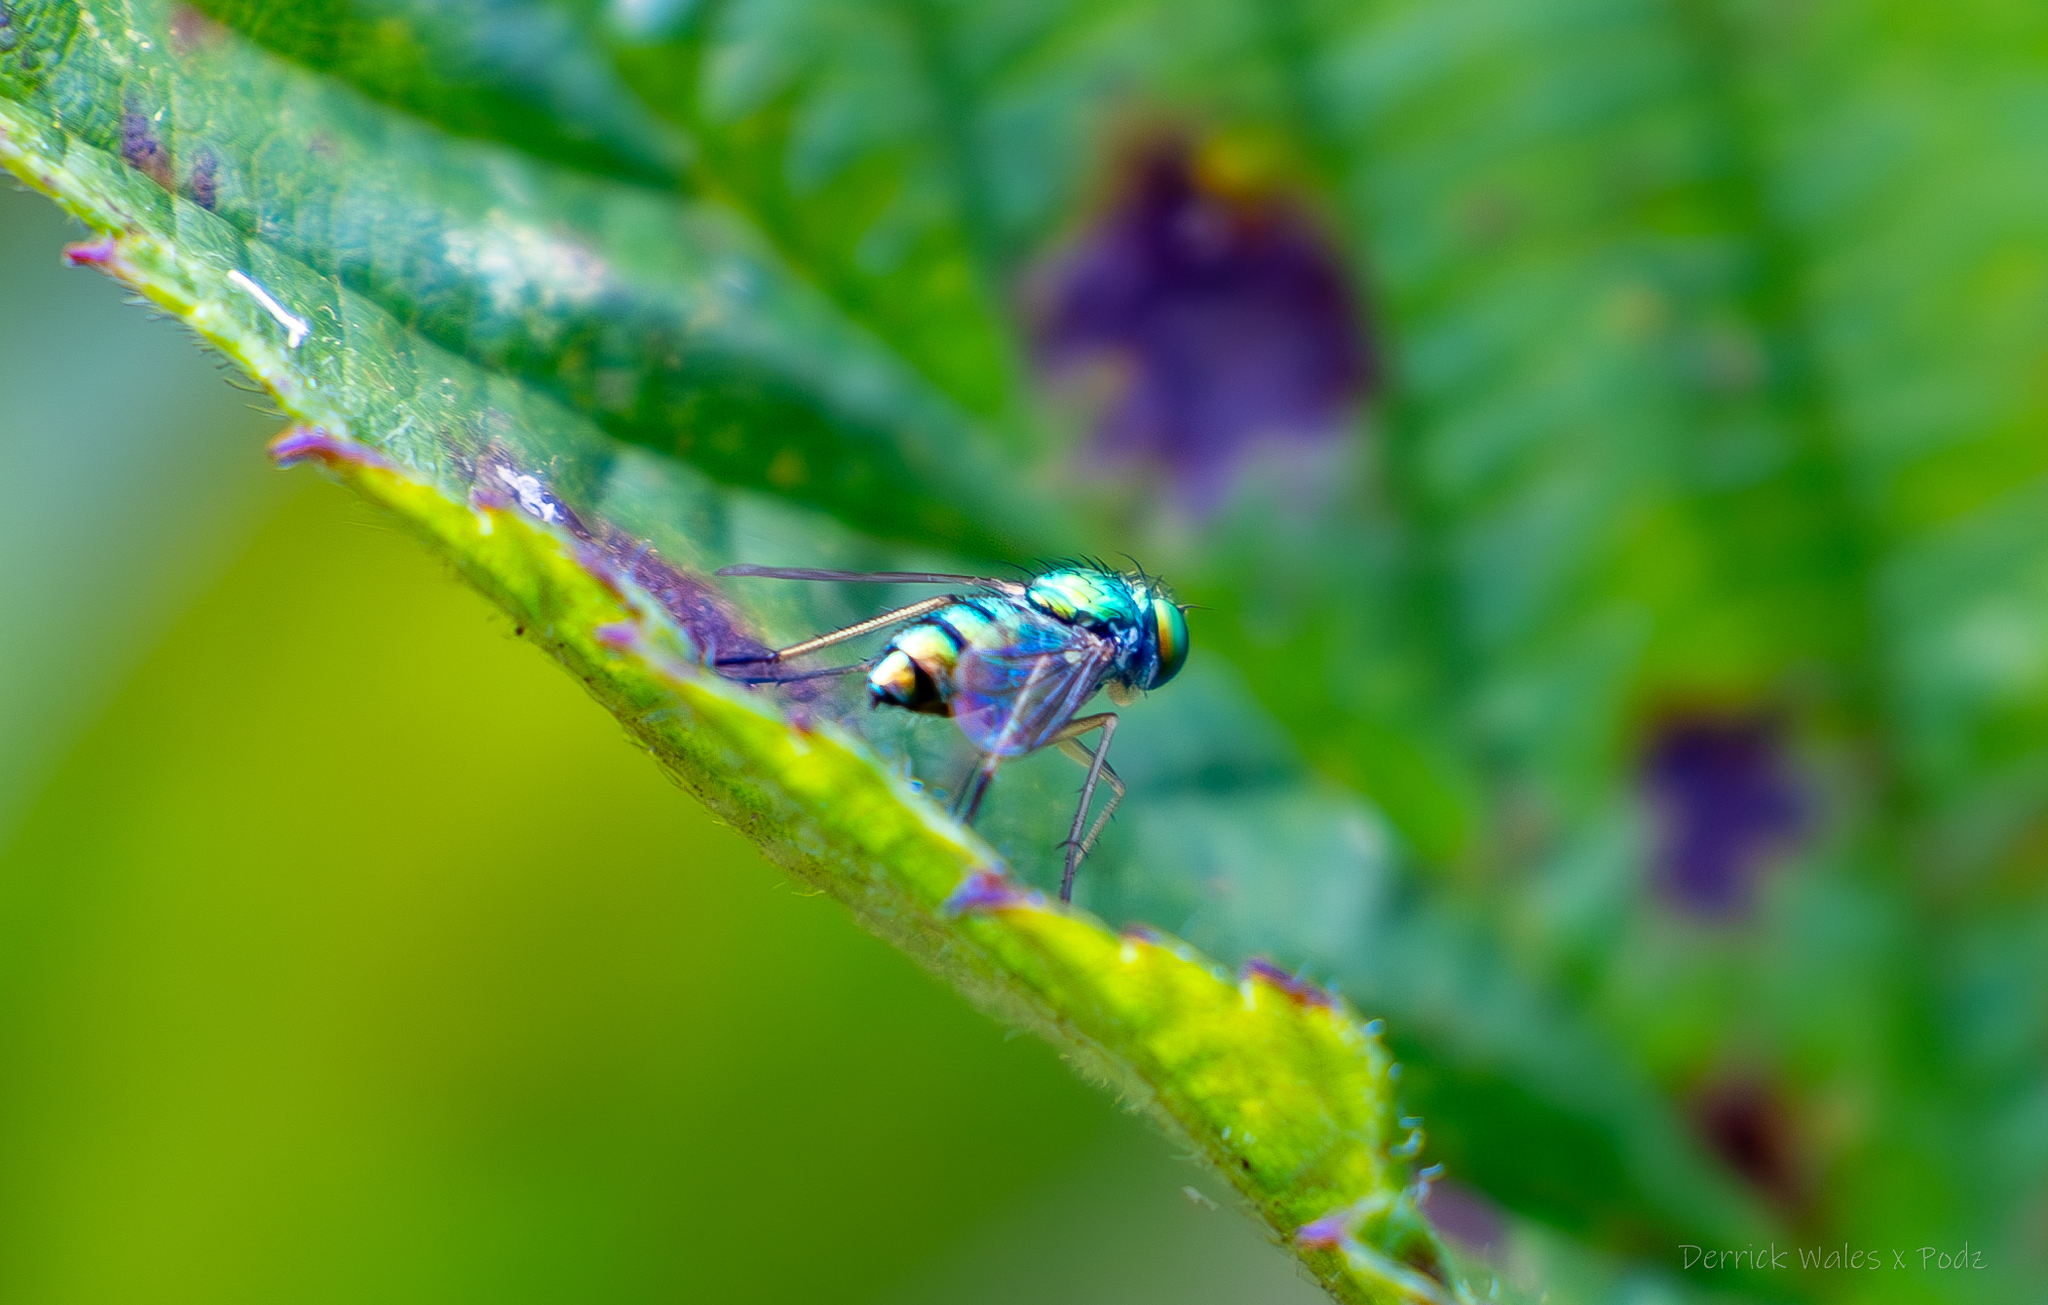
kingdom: Animalia
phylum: Arthropoda
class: Insecta
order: Diptera
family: Dolichopodidae
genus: Condylostylus
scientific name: Condylostylus
